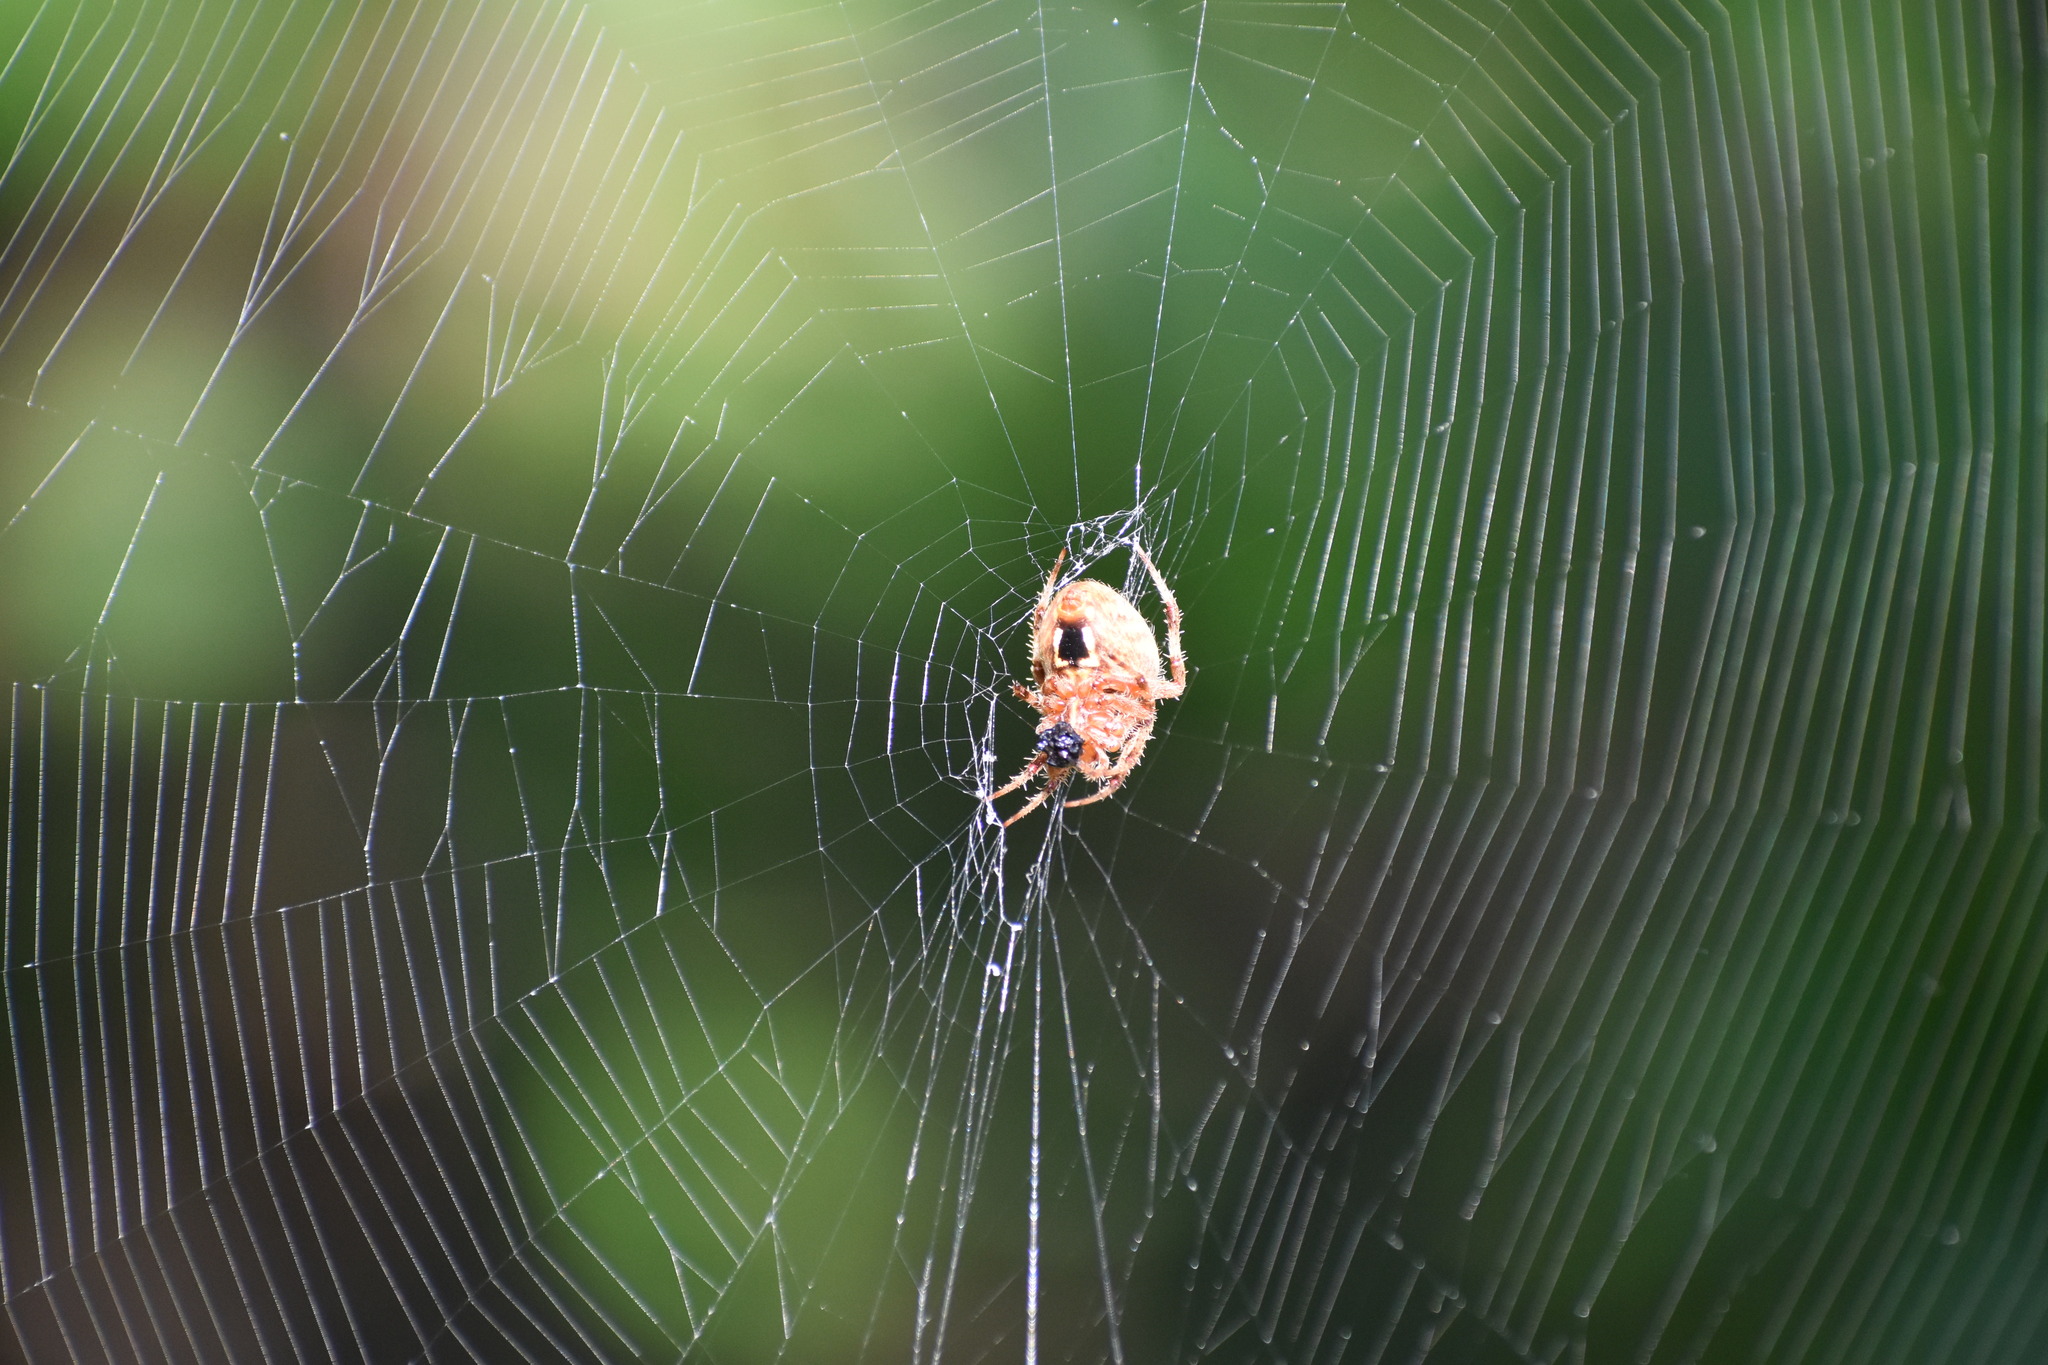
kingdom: Animalia
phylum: Arthropoda
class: Arachnida
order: Araneae
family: Araneidae
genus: Neoscona
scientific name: Neoscona crucifera
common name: Spotted orbweaver
